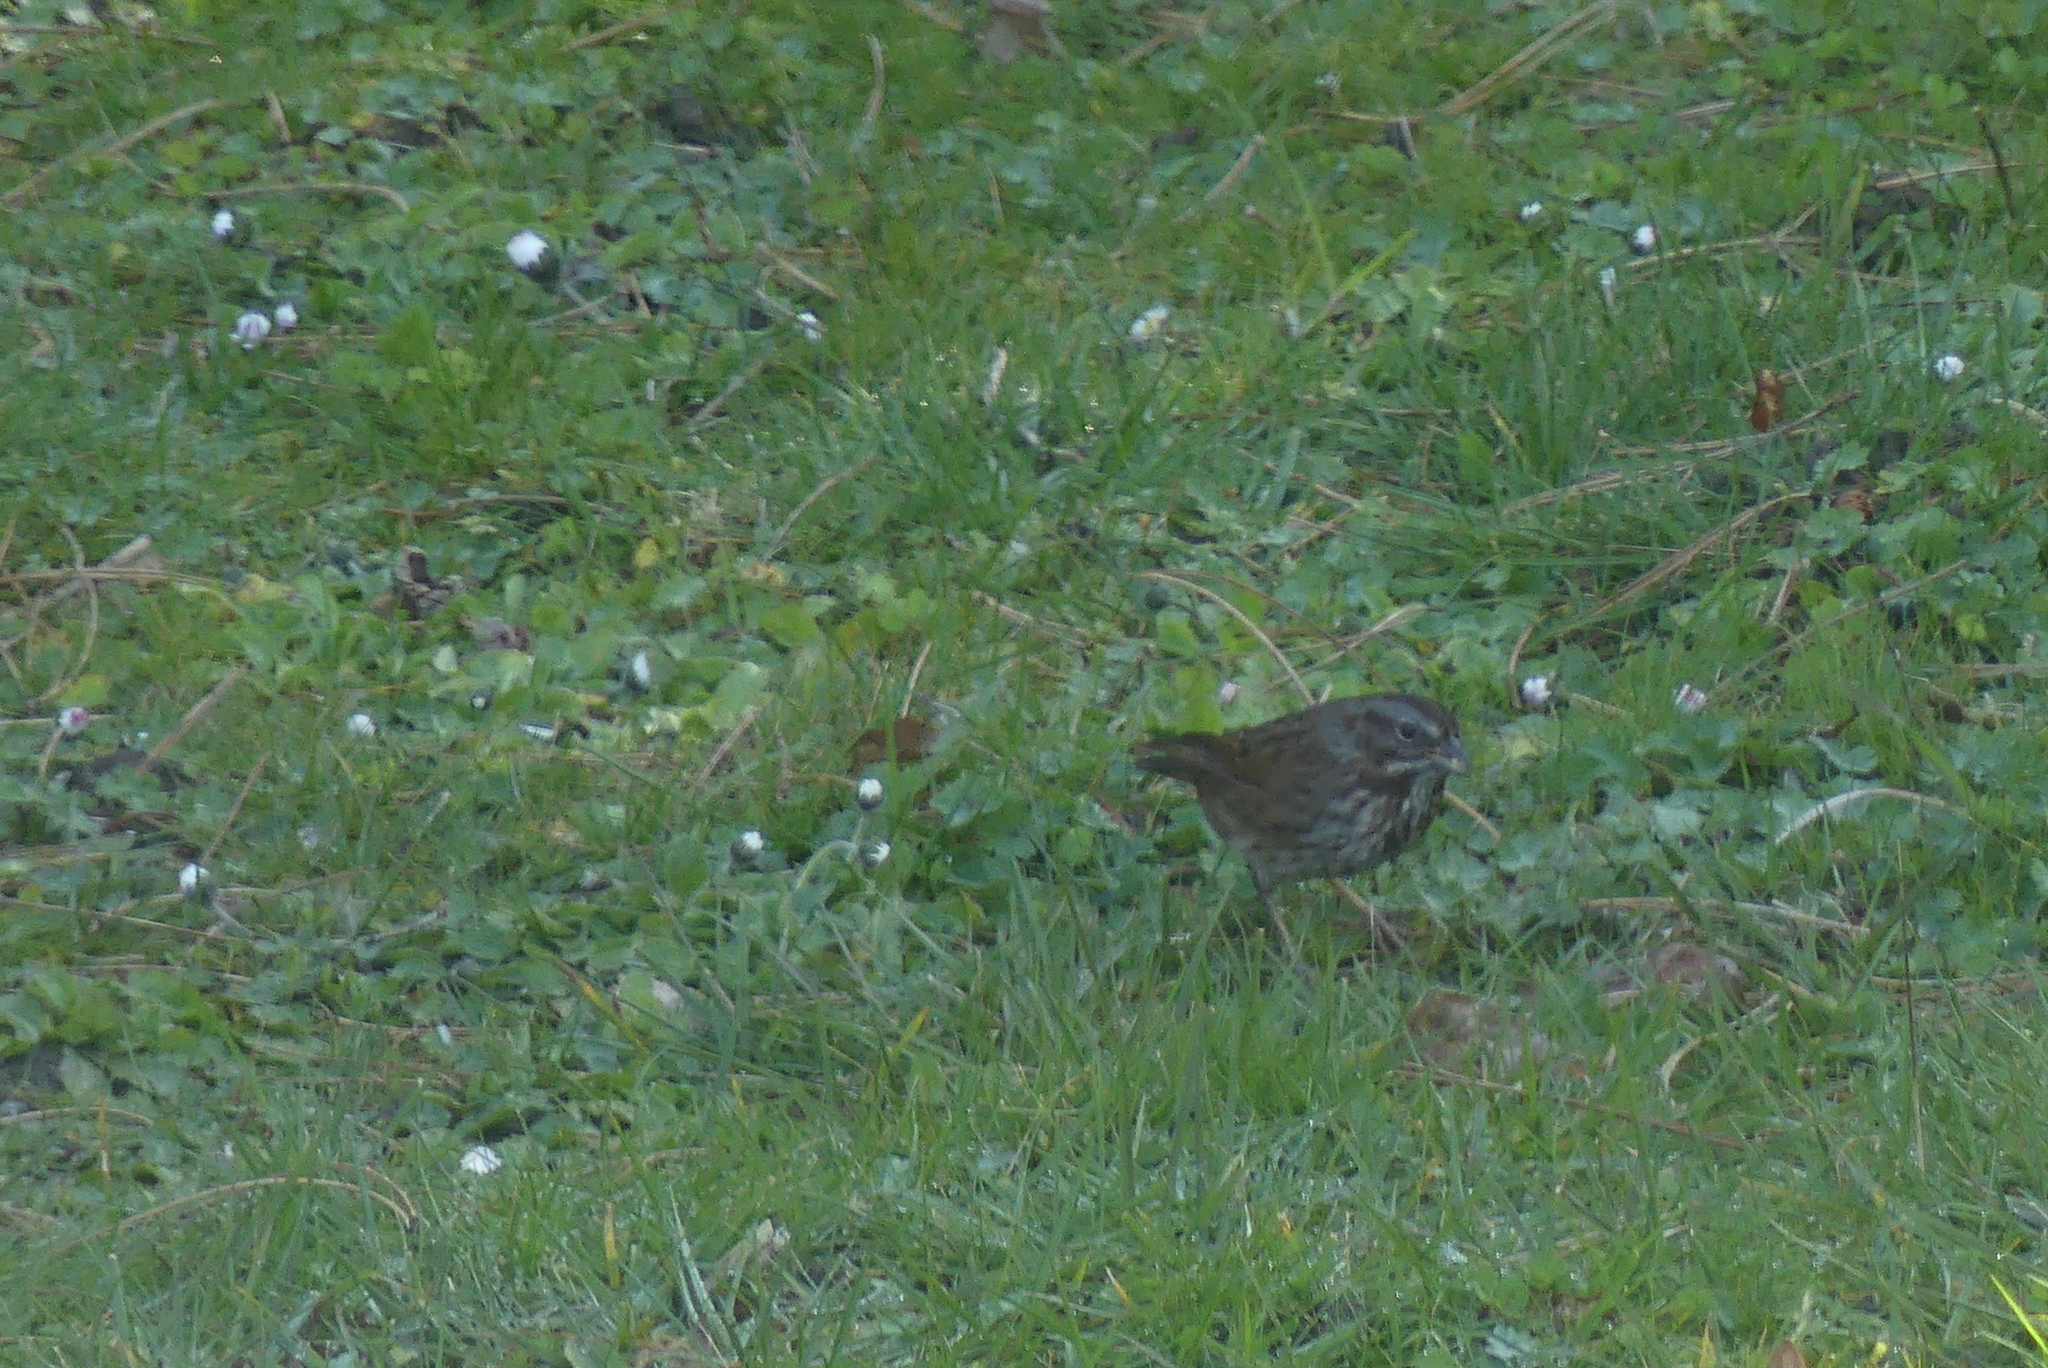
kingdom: Animalia
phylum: Chordata
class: Aves
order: Passeriformes
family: Passerellidae
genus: Melospiza
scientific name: Melospiza melodia
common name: Song sparrow
